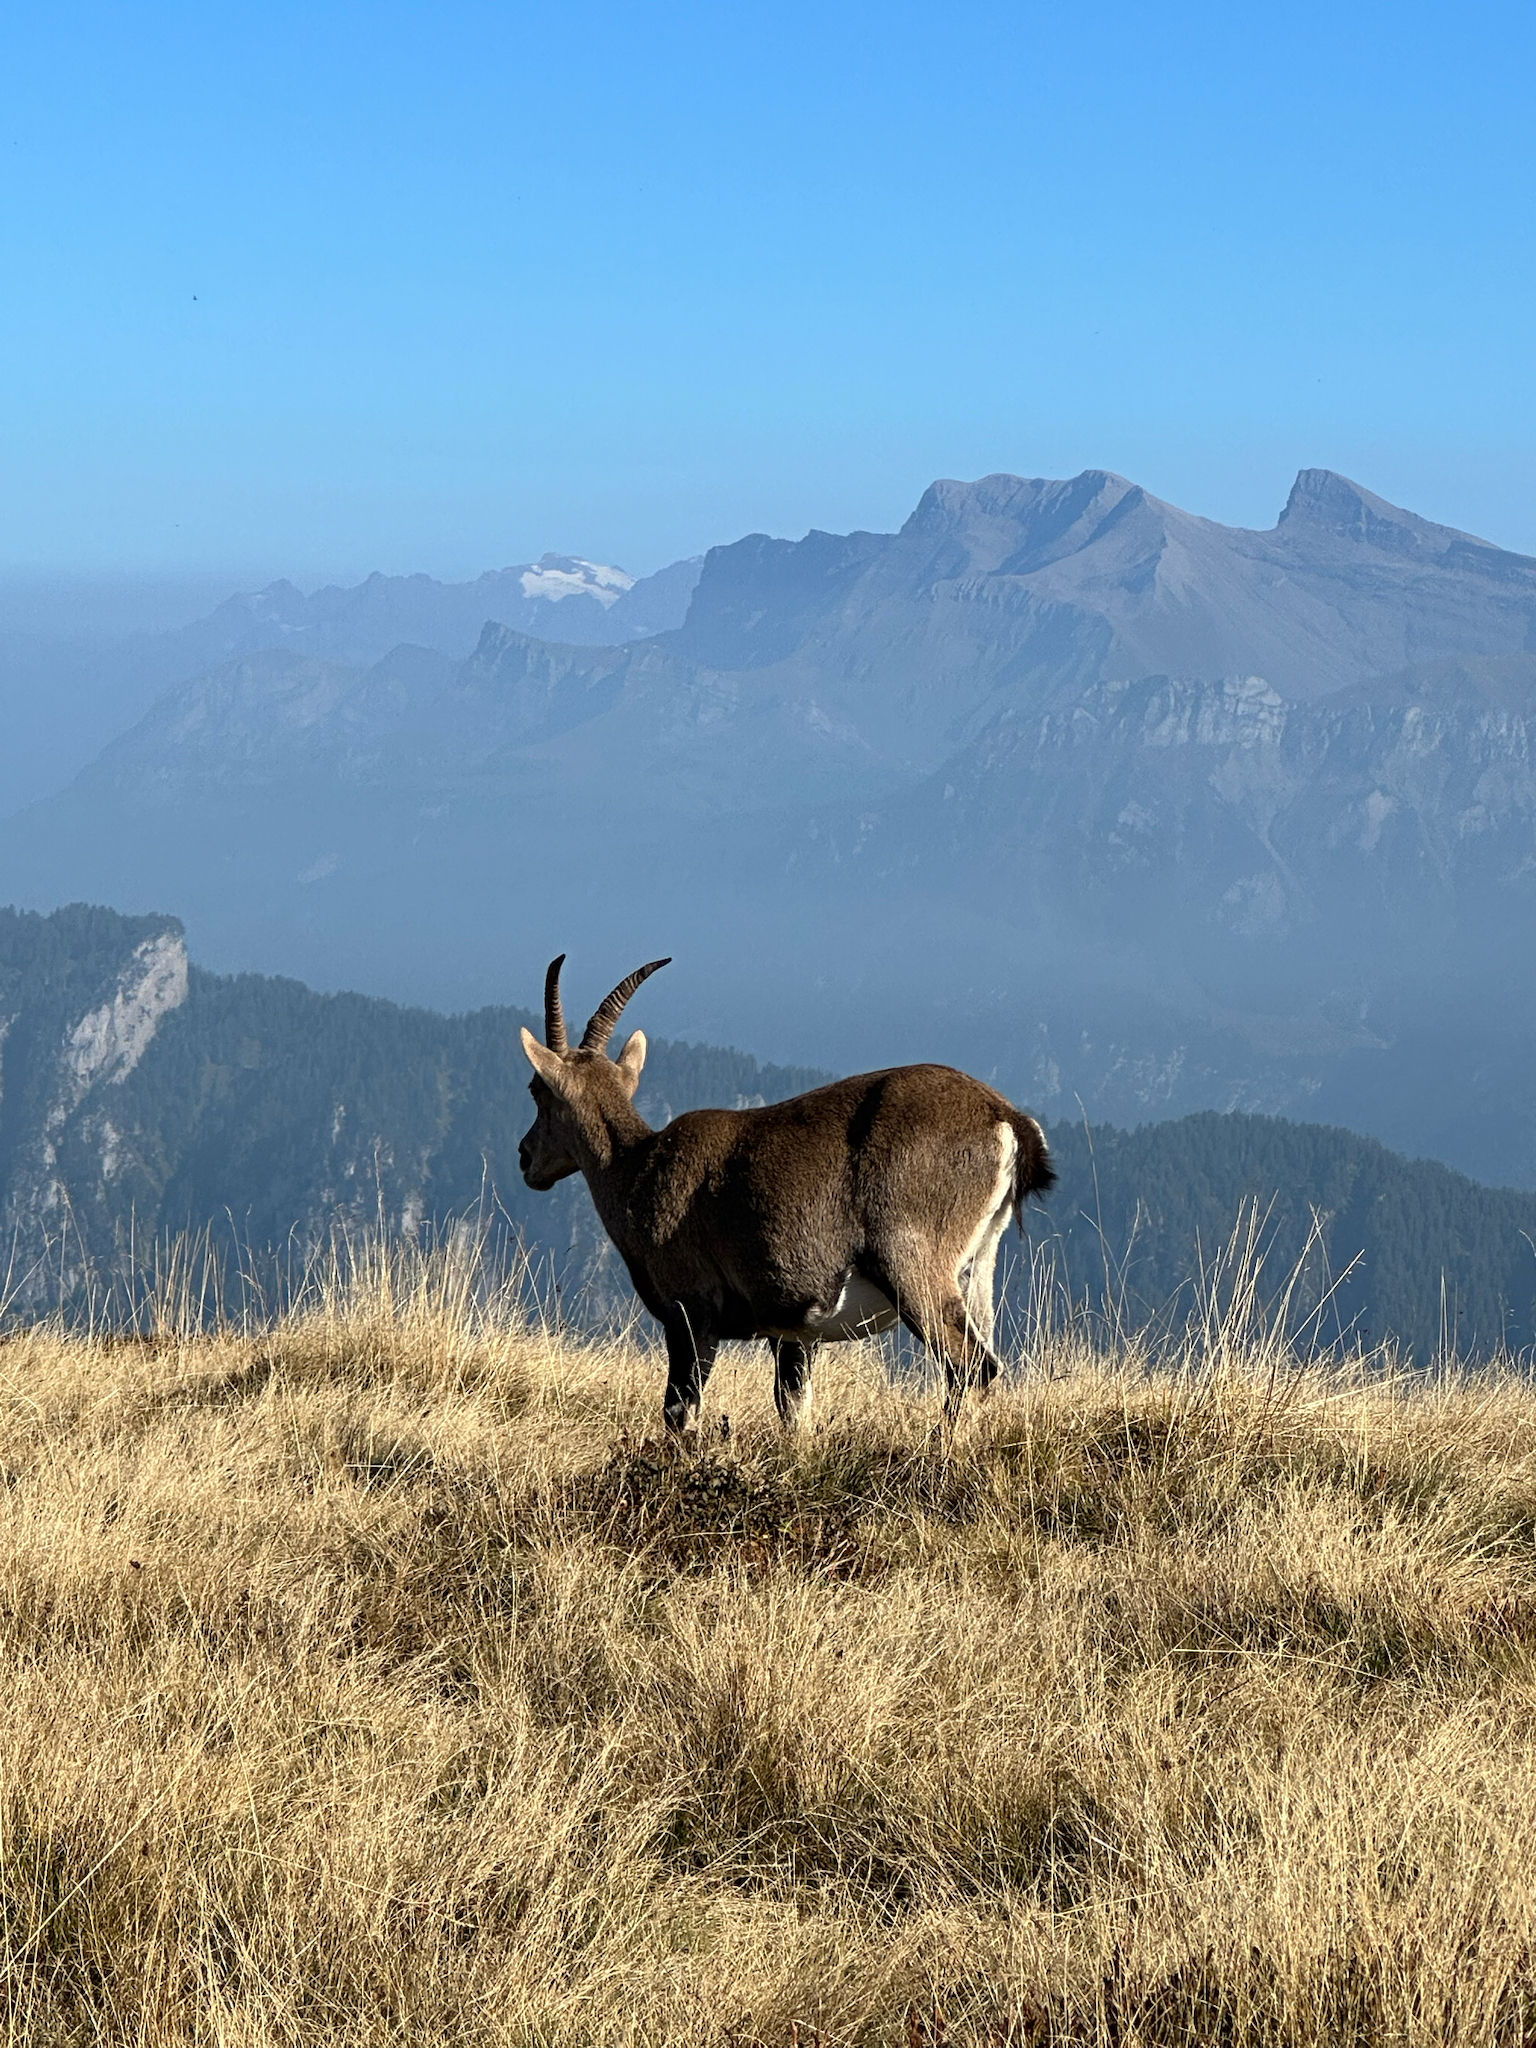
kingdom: Animalia
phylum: Chordata
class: Mammalia
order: Artiodactyla
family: Bovidae
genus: Capra
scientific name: Capra ibex
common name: Alpine ibex
